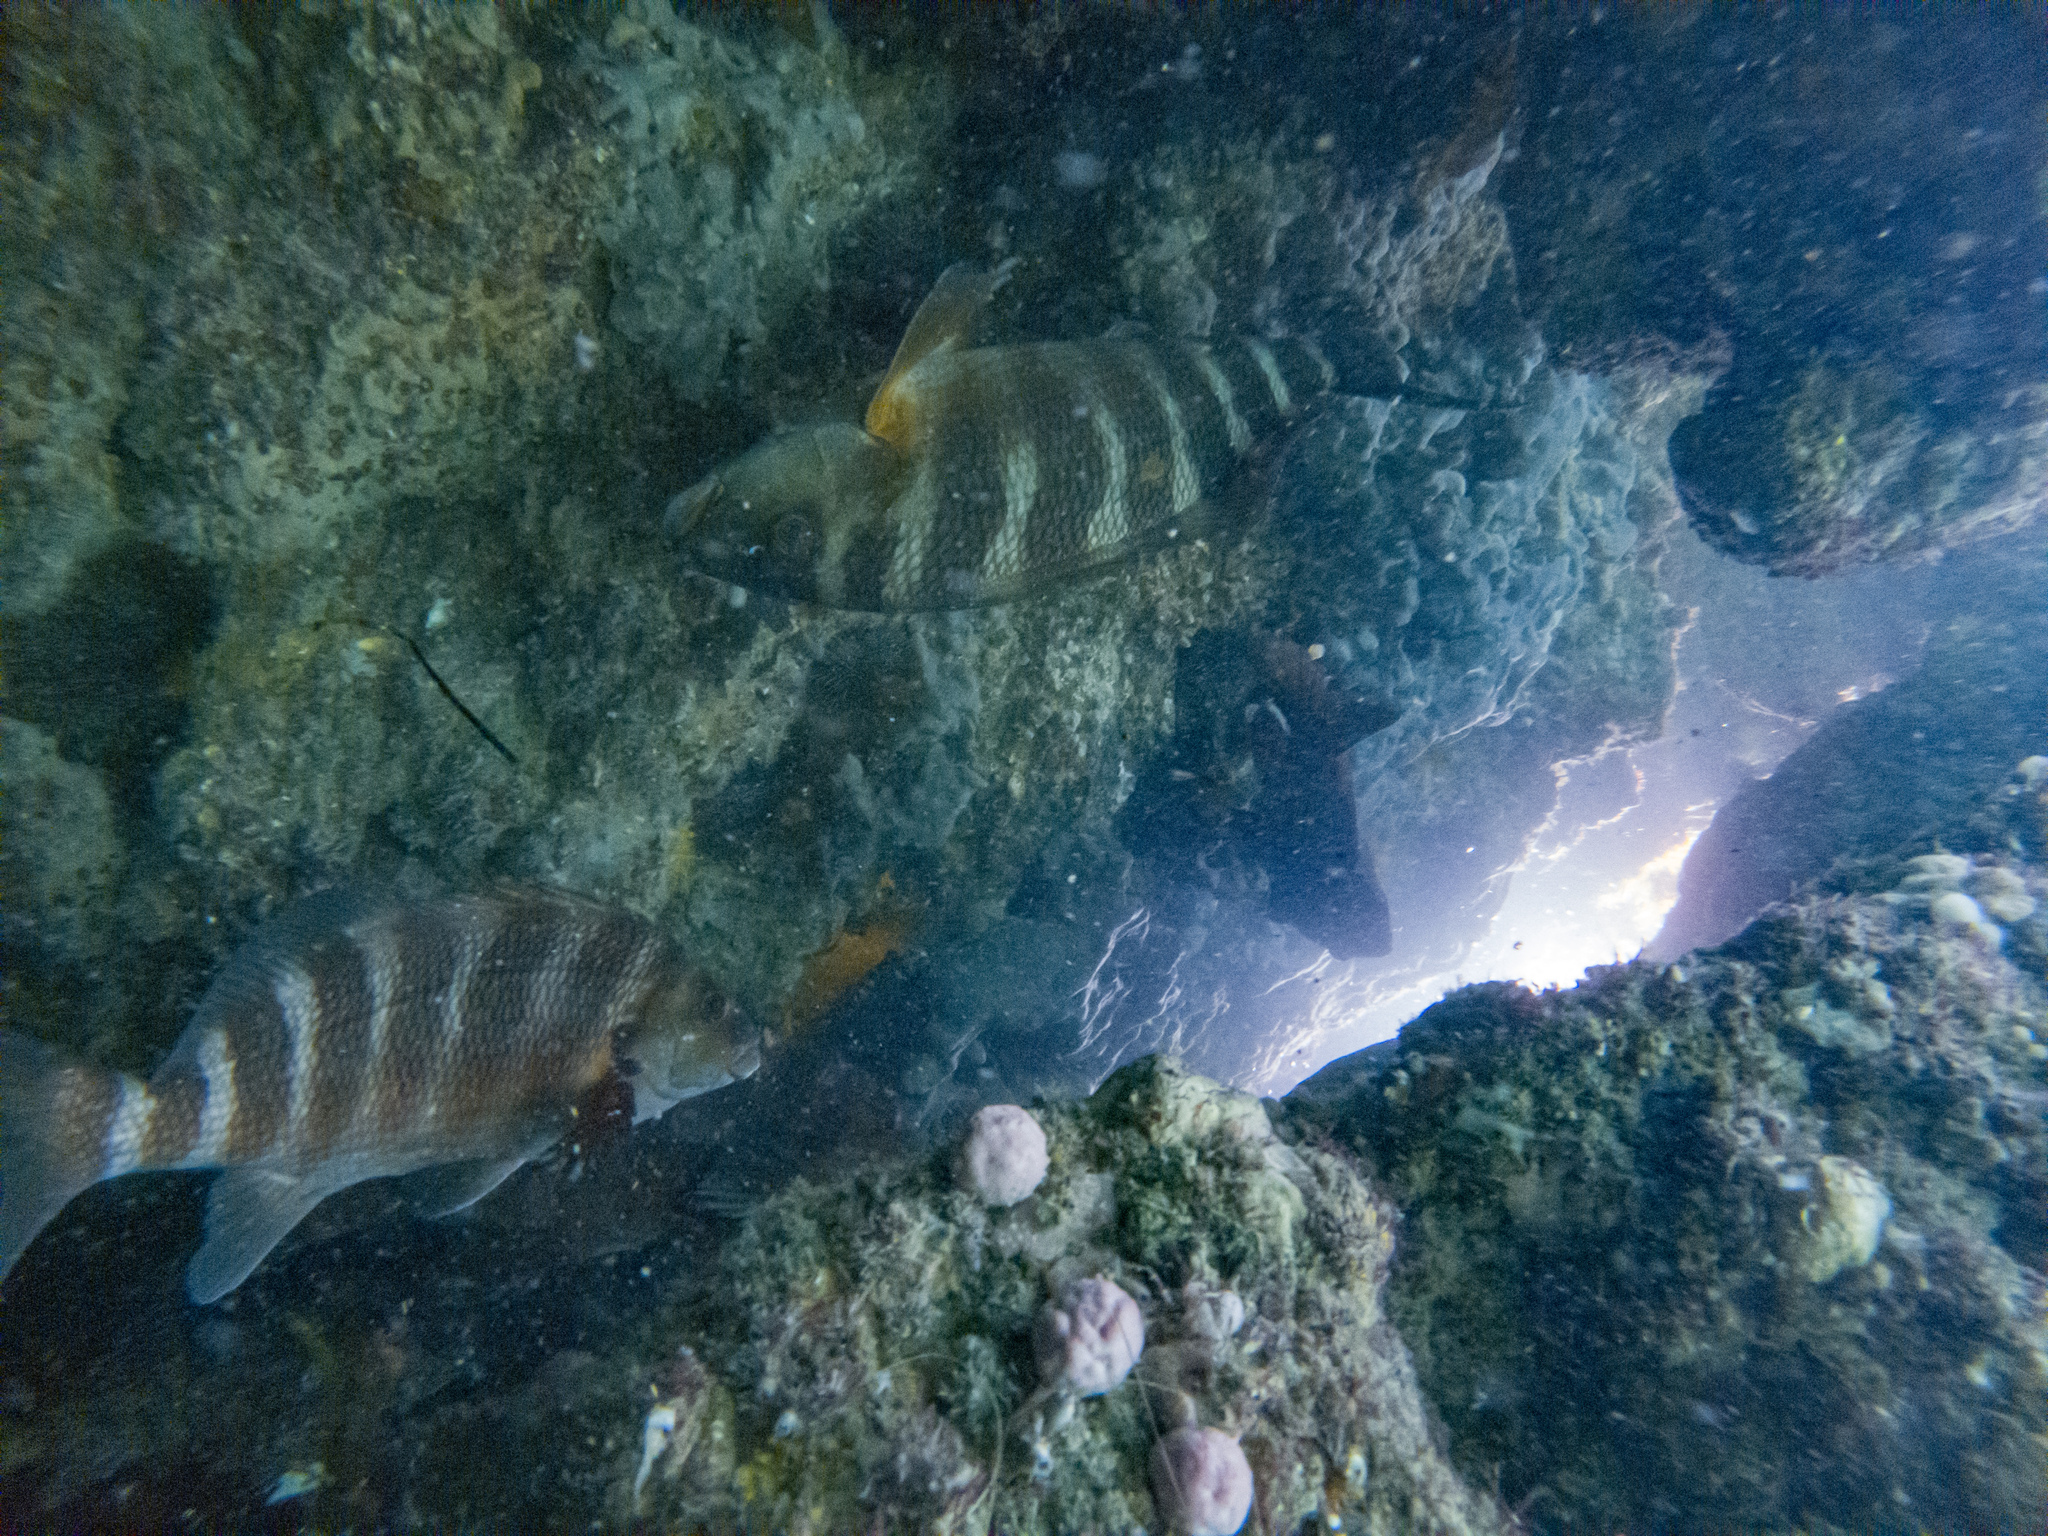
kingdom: Animalia
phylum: Chordata
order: Perciformes
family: Cheilodactylidae
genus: Cheilodactylus
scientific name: Cheilodactylus spectabilis
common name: Red moki
